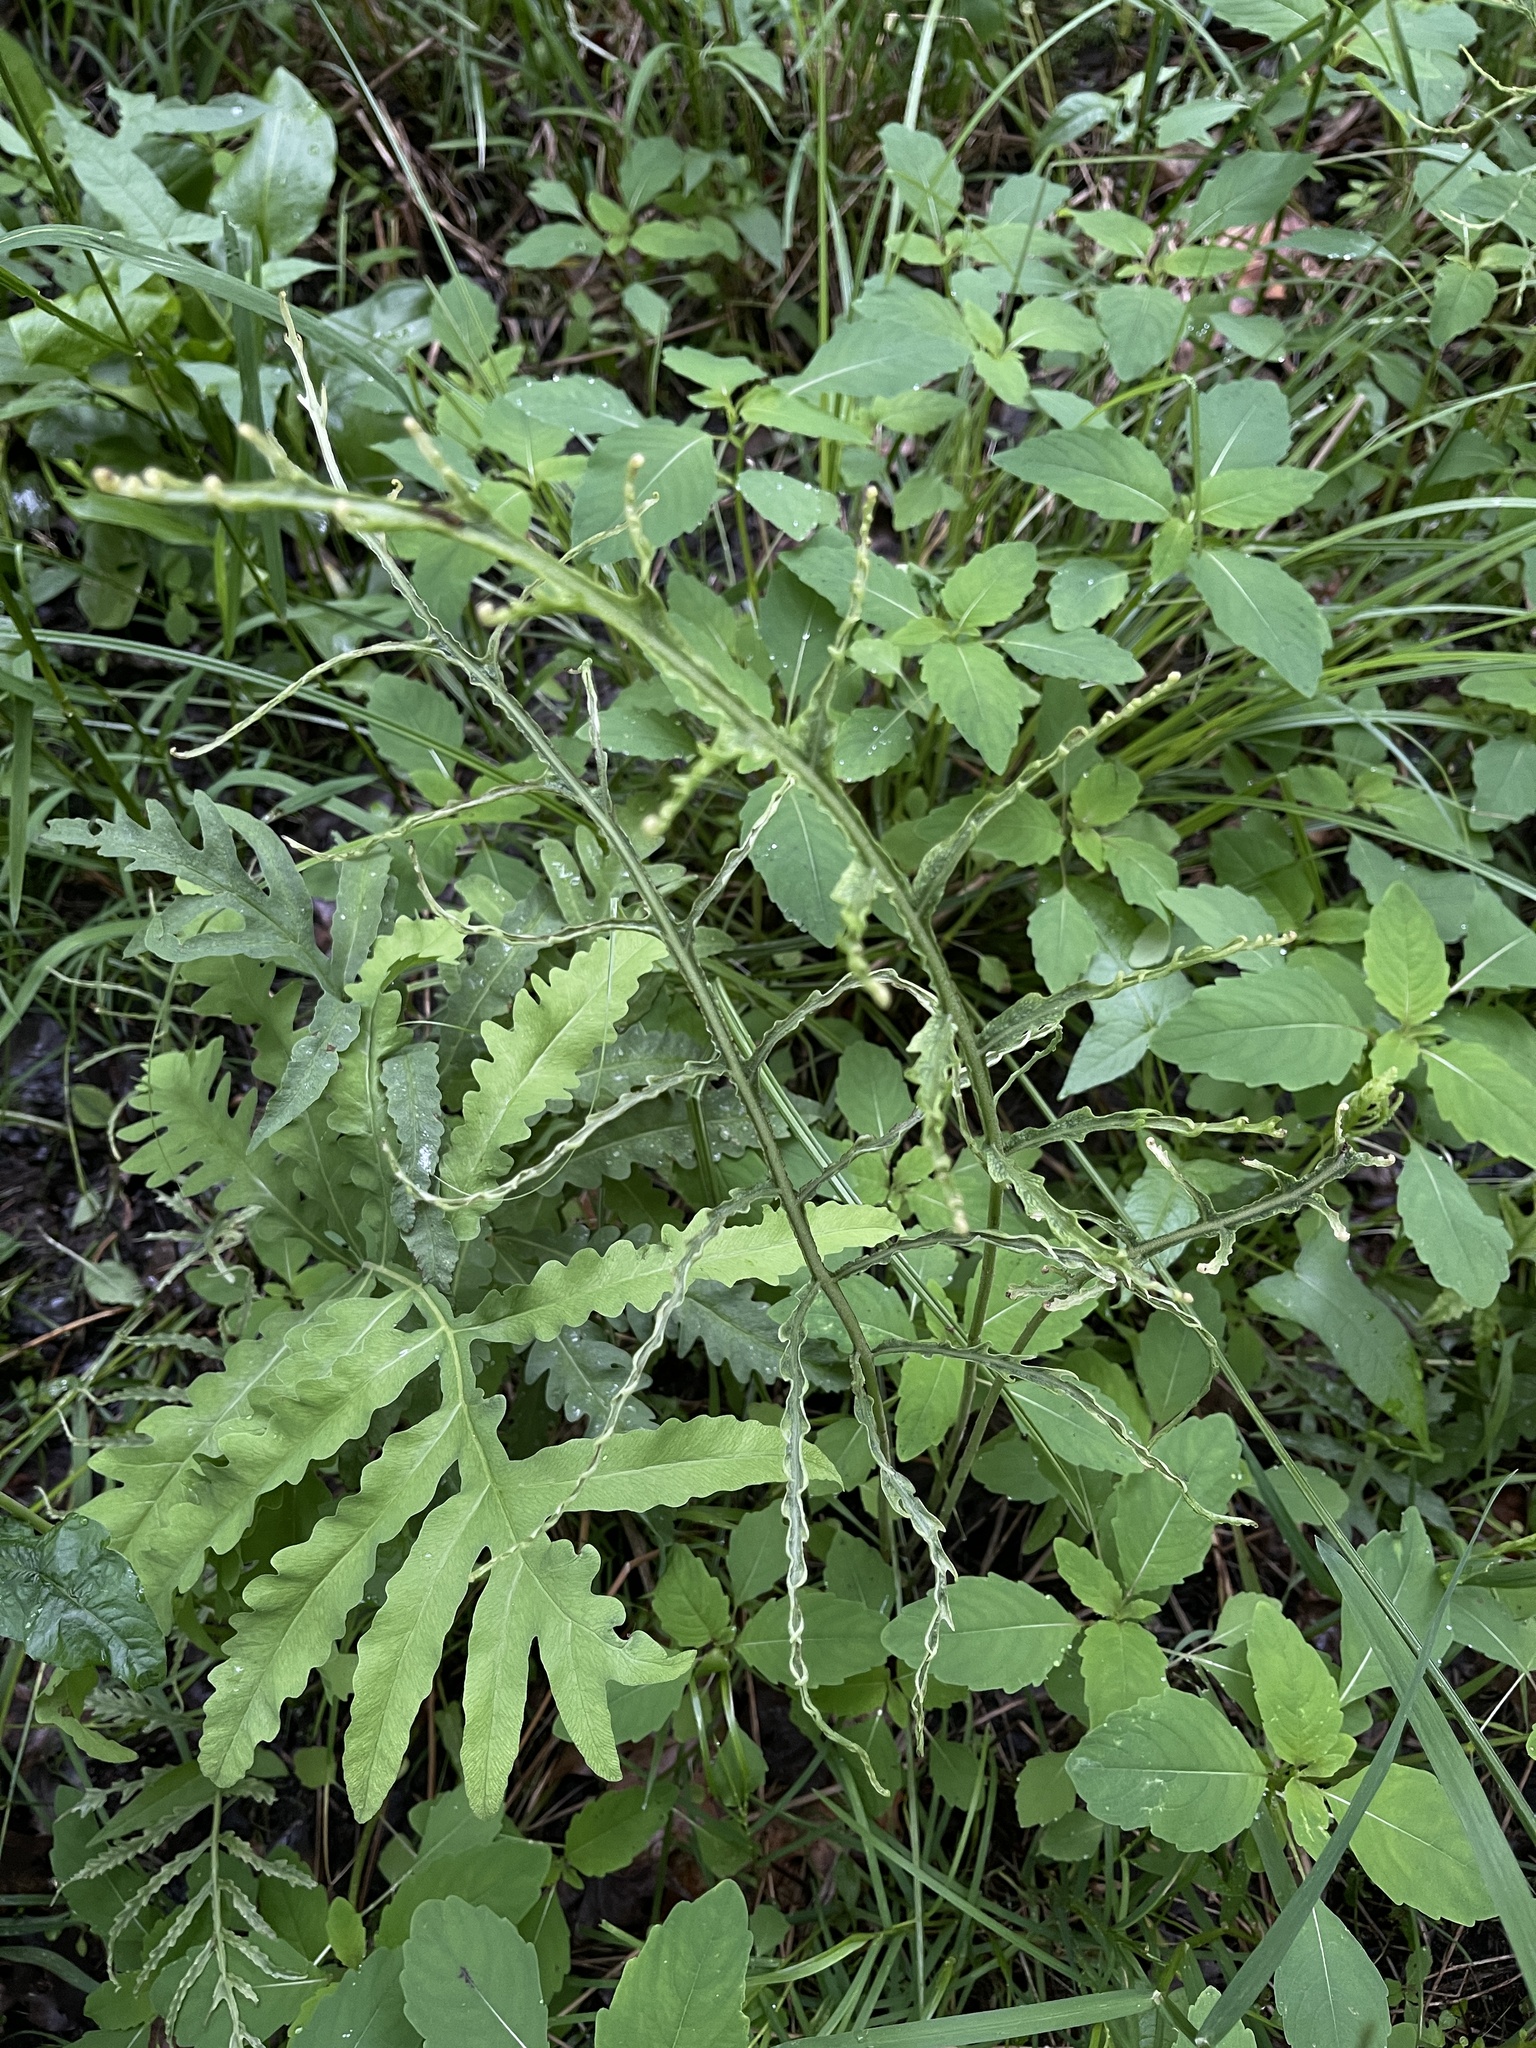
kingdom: Plantae
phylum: Tracheophyta
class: Polypodiopsida
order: Polypodiales
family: Onocleaceae
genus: Onoclea
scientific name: Onoclea sensibilis
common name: Sensitive fern
